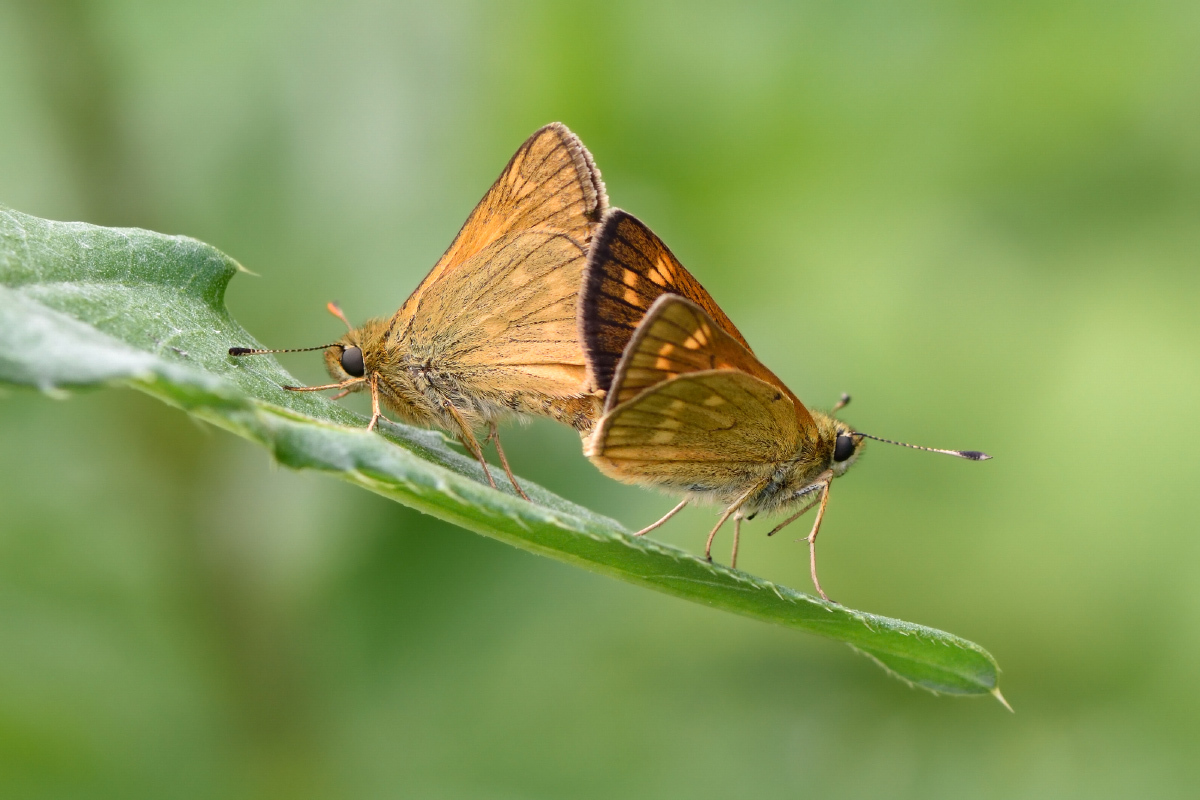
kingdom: Animalia
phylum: Arthropoda
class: Insecta
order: Lepidoptera
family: Hesperiidae
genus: Ochlodes
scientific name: Ochlodes venata
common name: Large skipper
